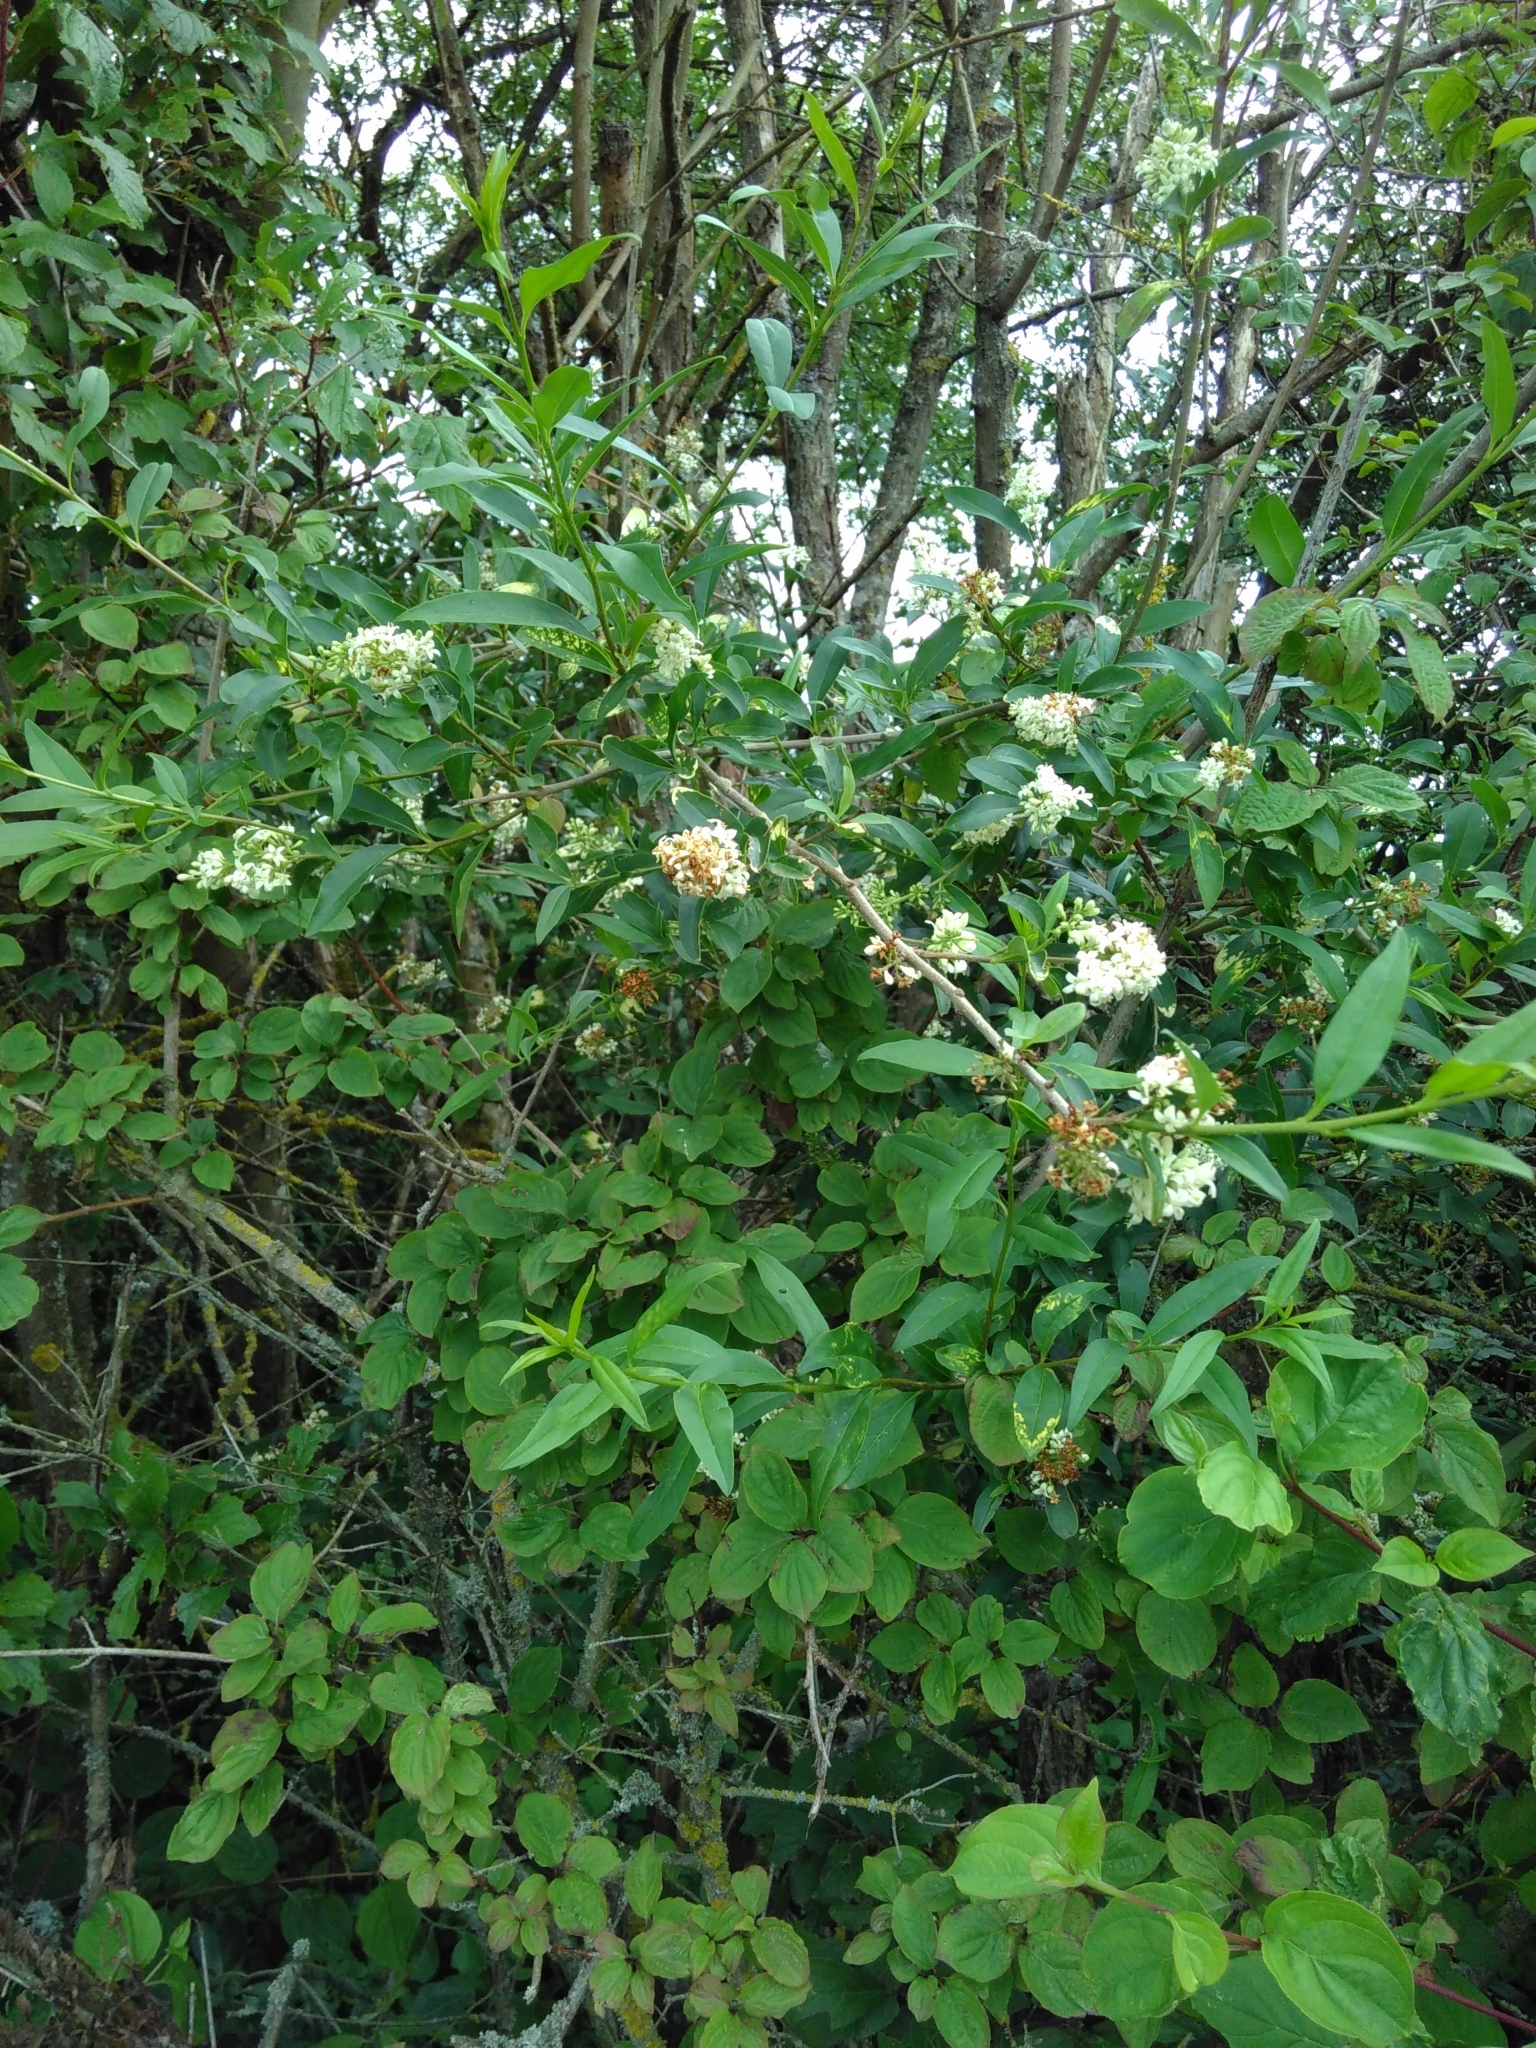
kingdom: Plantae
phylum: Tracheophyta
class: Magnoliopsida
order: Lamiales
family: Oleaceae
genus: Ligustrum
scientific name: Ligustrum vulgare
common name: Wild privet
